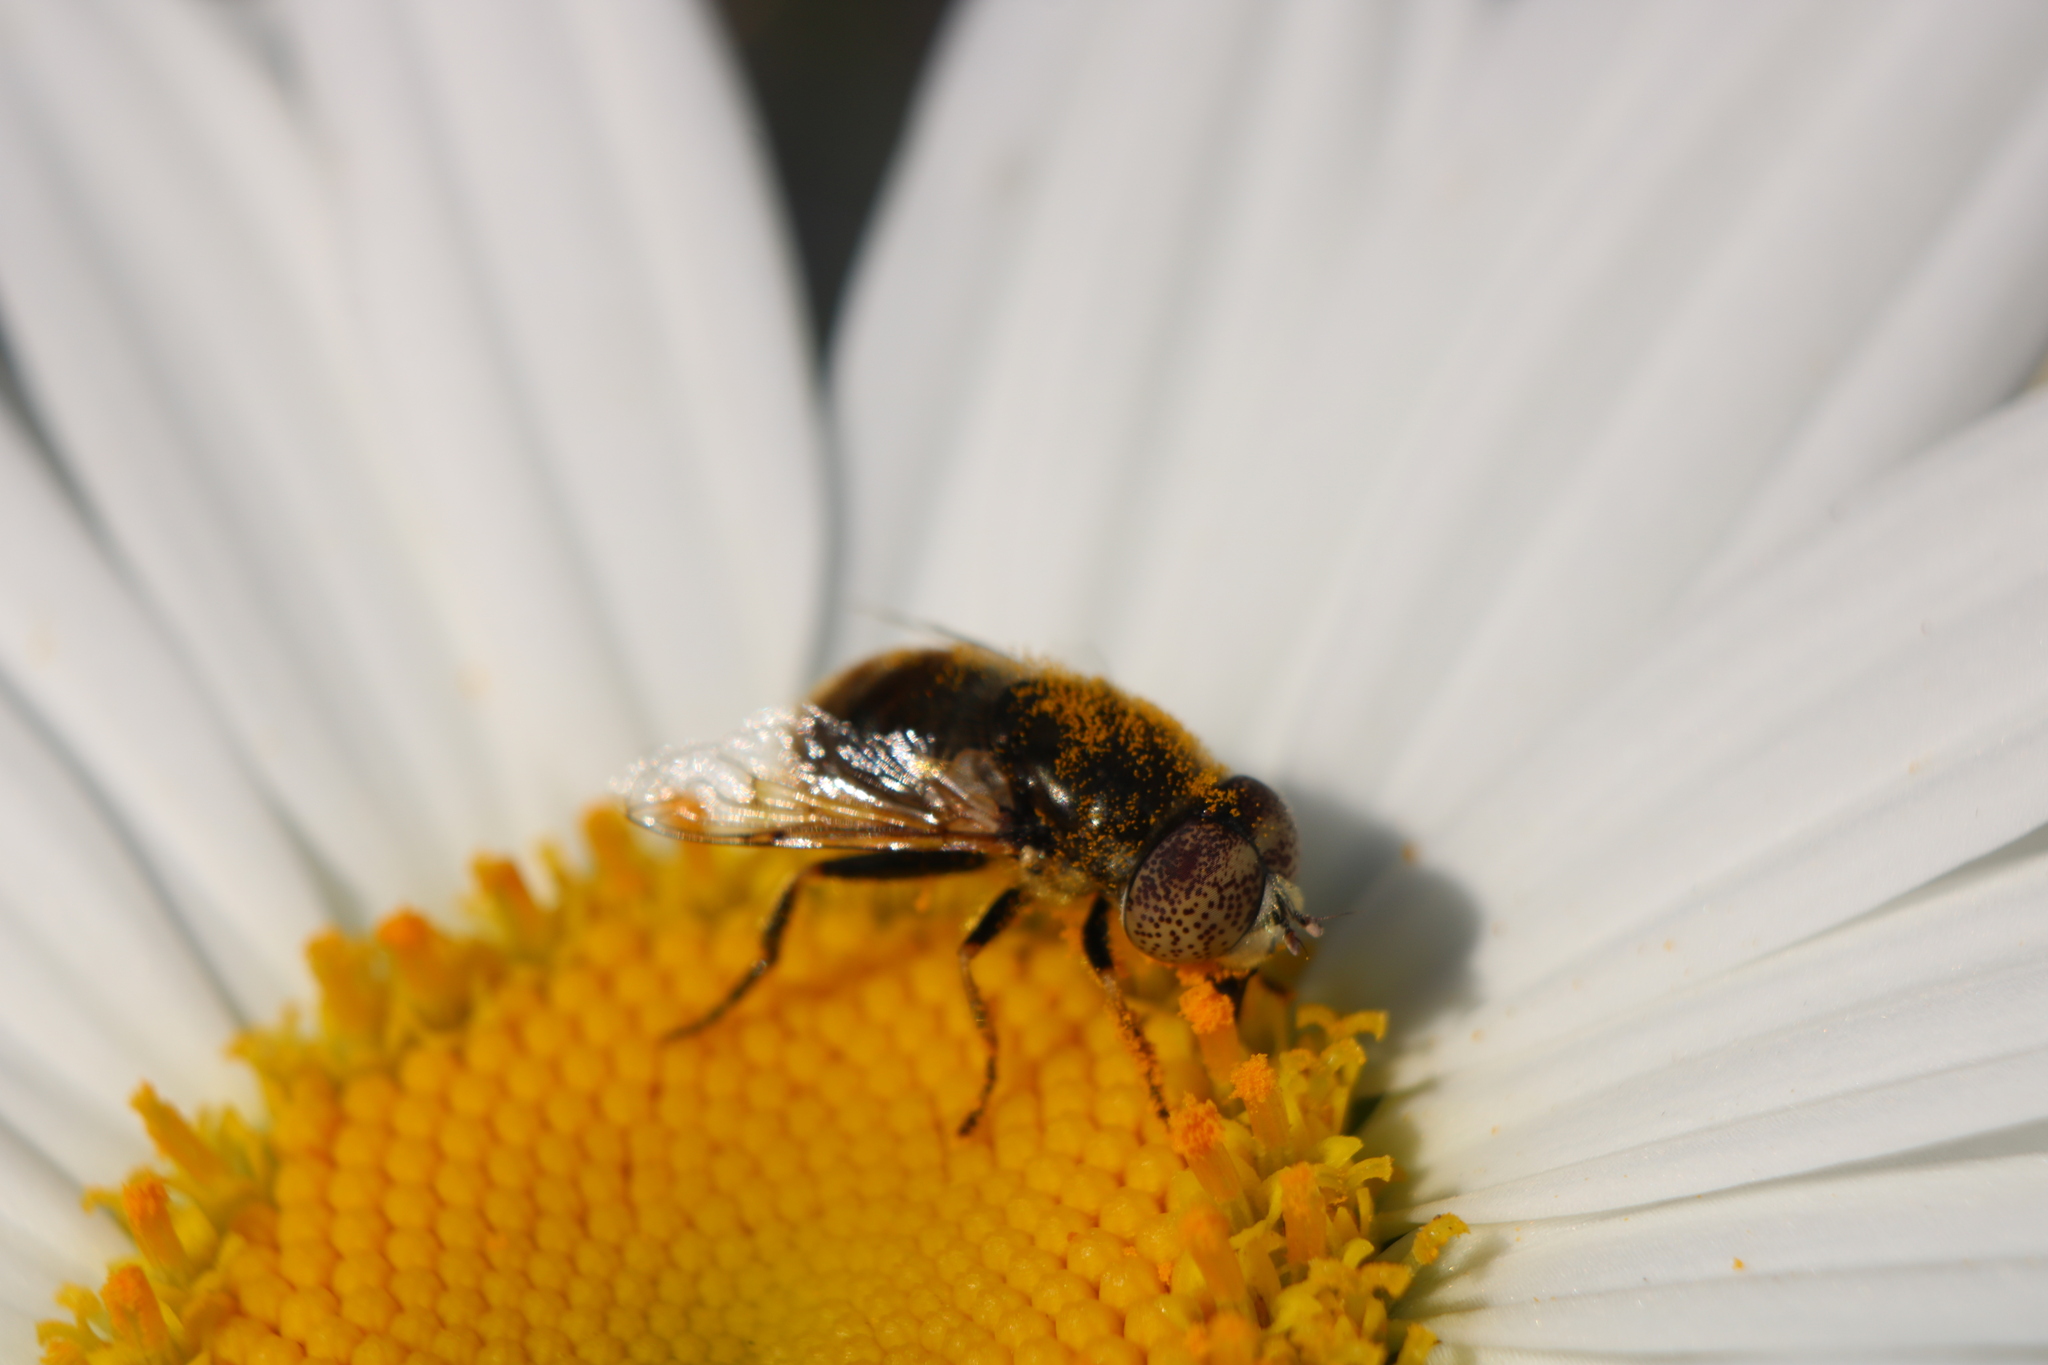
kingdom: Animalia
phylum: Arthropoda
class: Insecta
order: Diptera
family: Syrphidae
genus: Eristalinus
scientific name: Eristalinus aeneus
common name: Syrphid fly
